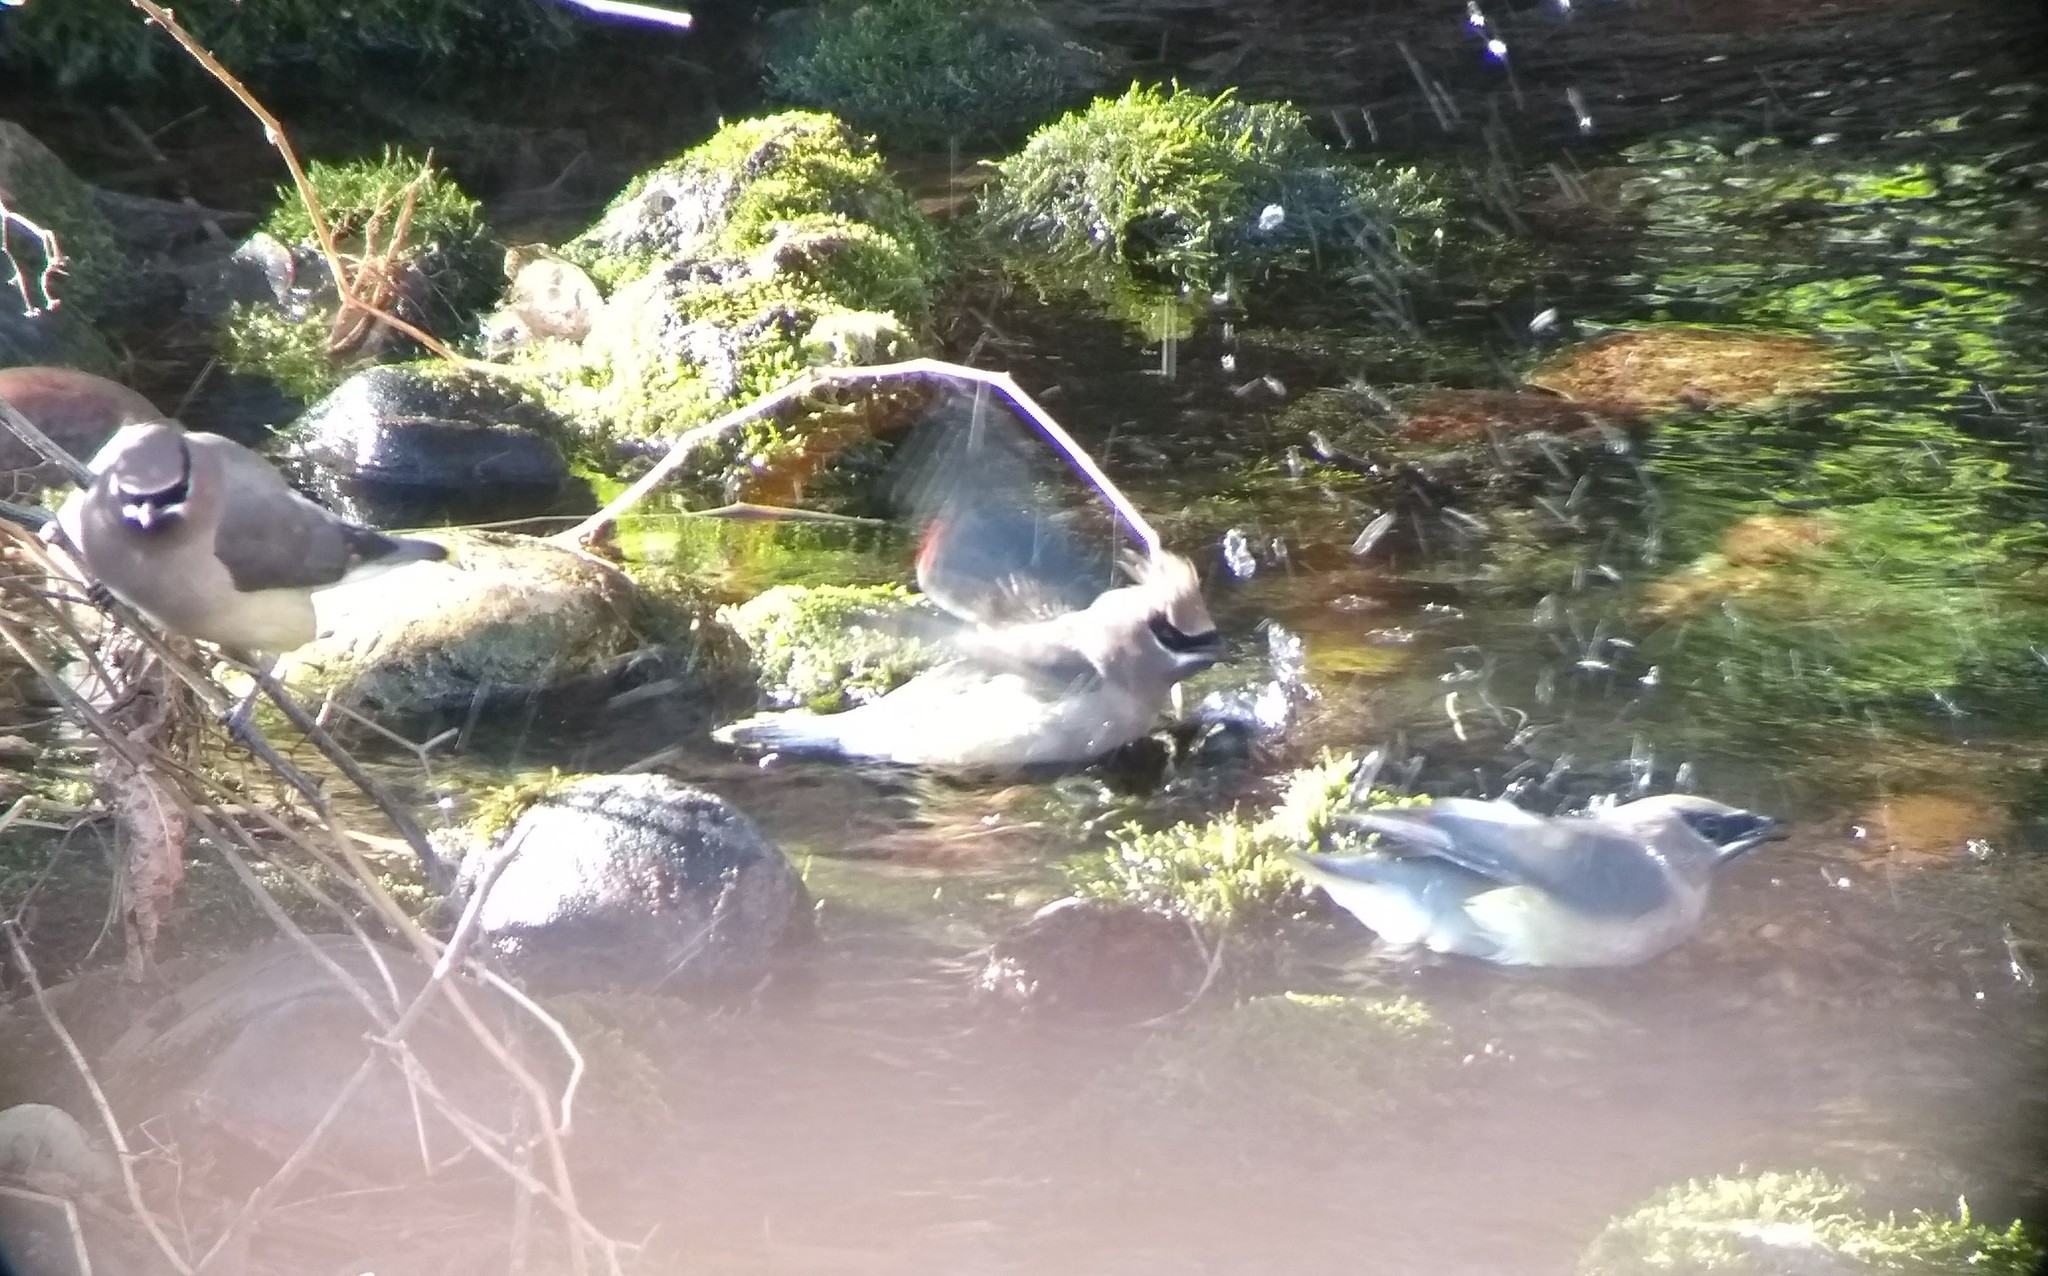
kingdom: Animalia
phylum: Chordata
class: Aves
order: Passeriformes
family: Bombycillidae
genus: Bombycilla
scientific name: Bombycilla cedrorum
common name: Cedar waxwing
